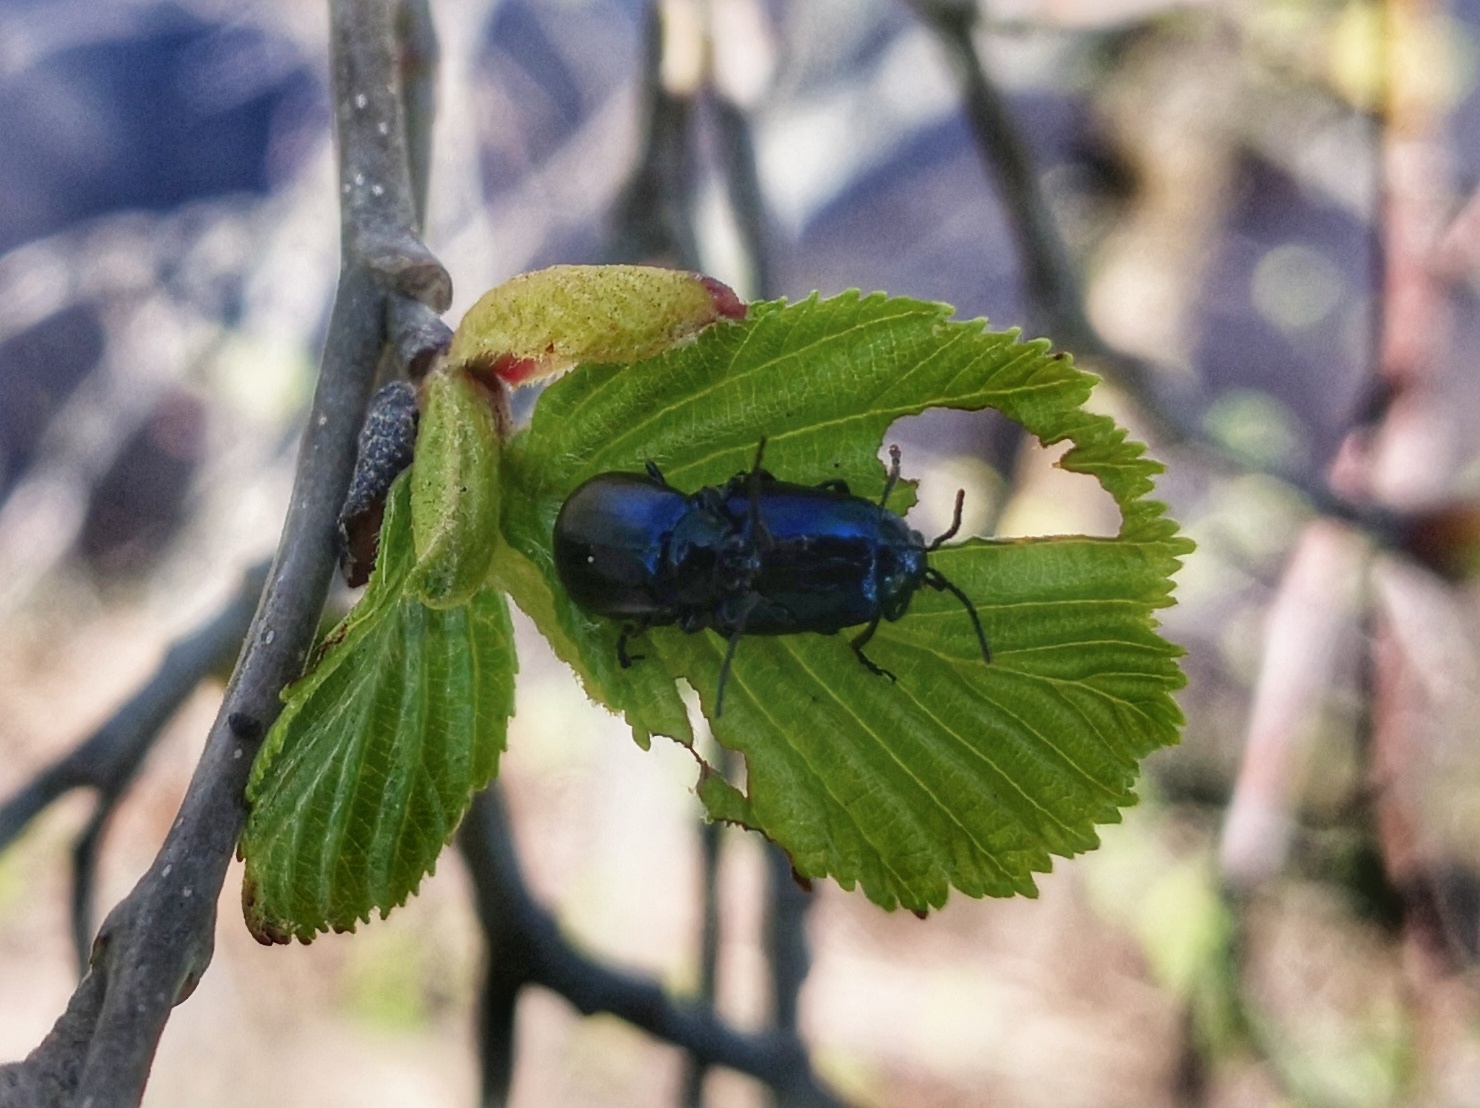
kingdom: Animalia
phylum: Arthropoda
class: Insecta
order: Coleoptera
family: Chrysomelidae
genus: Agelastica
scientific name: Agelastica alni
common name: Alder leaf beetle
